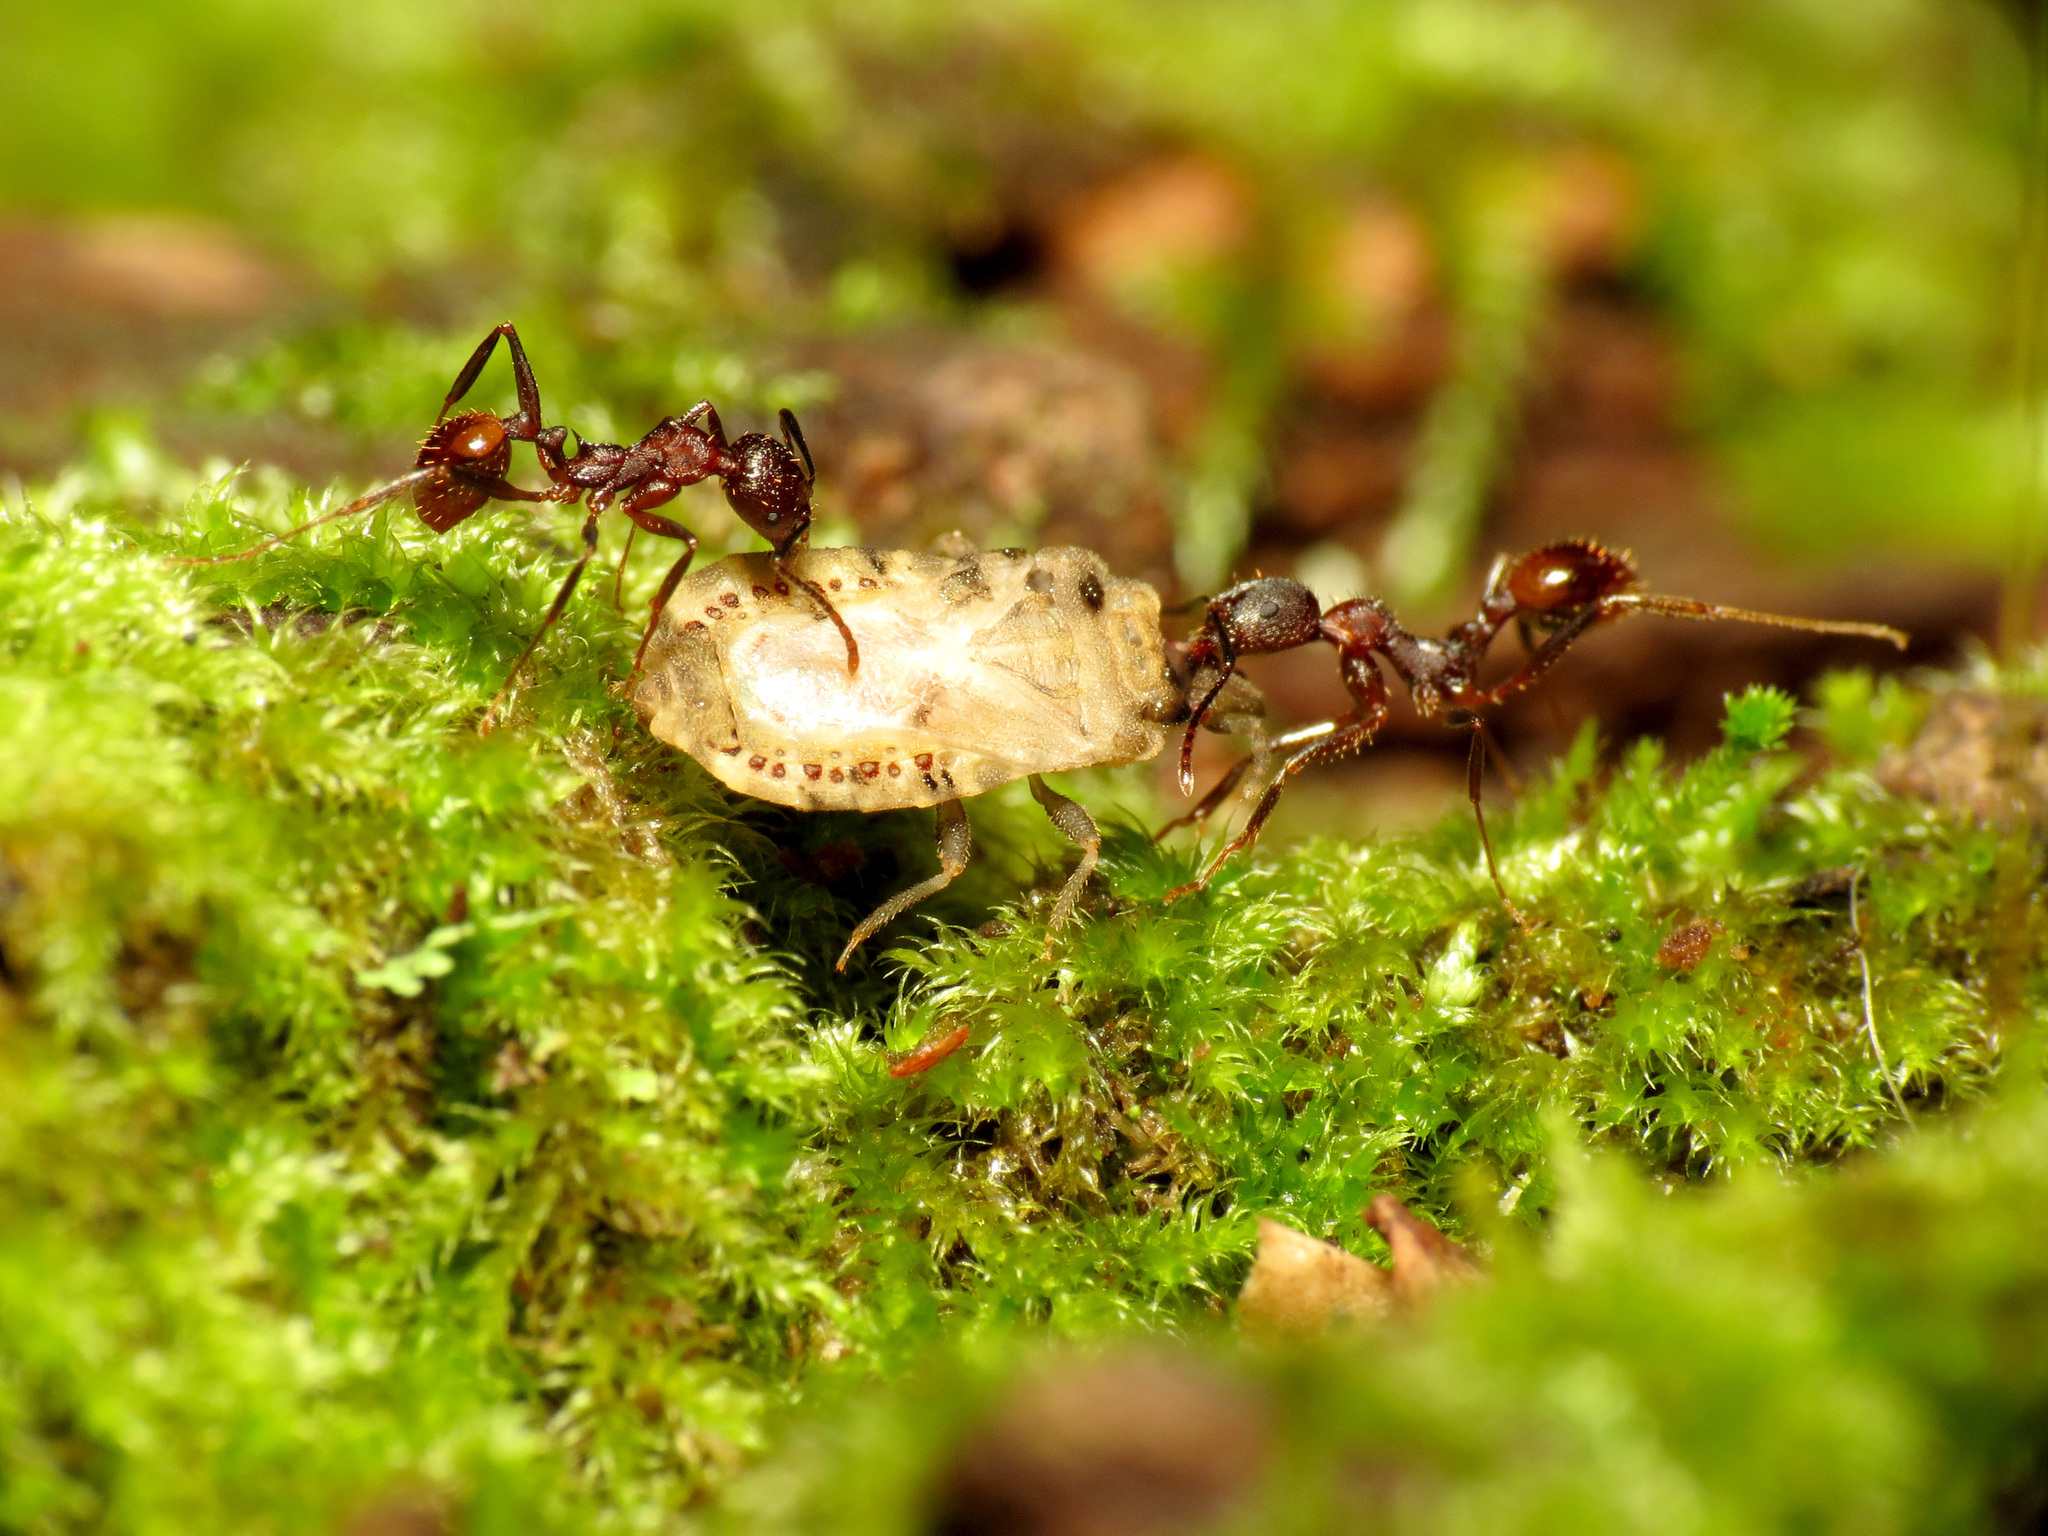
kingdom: Animalia
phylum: Arthropoda
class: Insecta
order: Hymenoptera
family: Formicidae
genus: Aphaenogaster
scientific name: Aphaenogaster fulva
